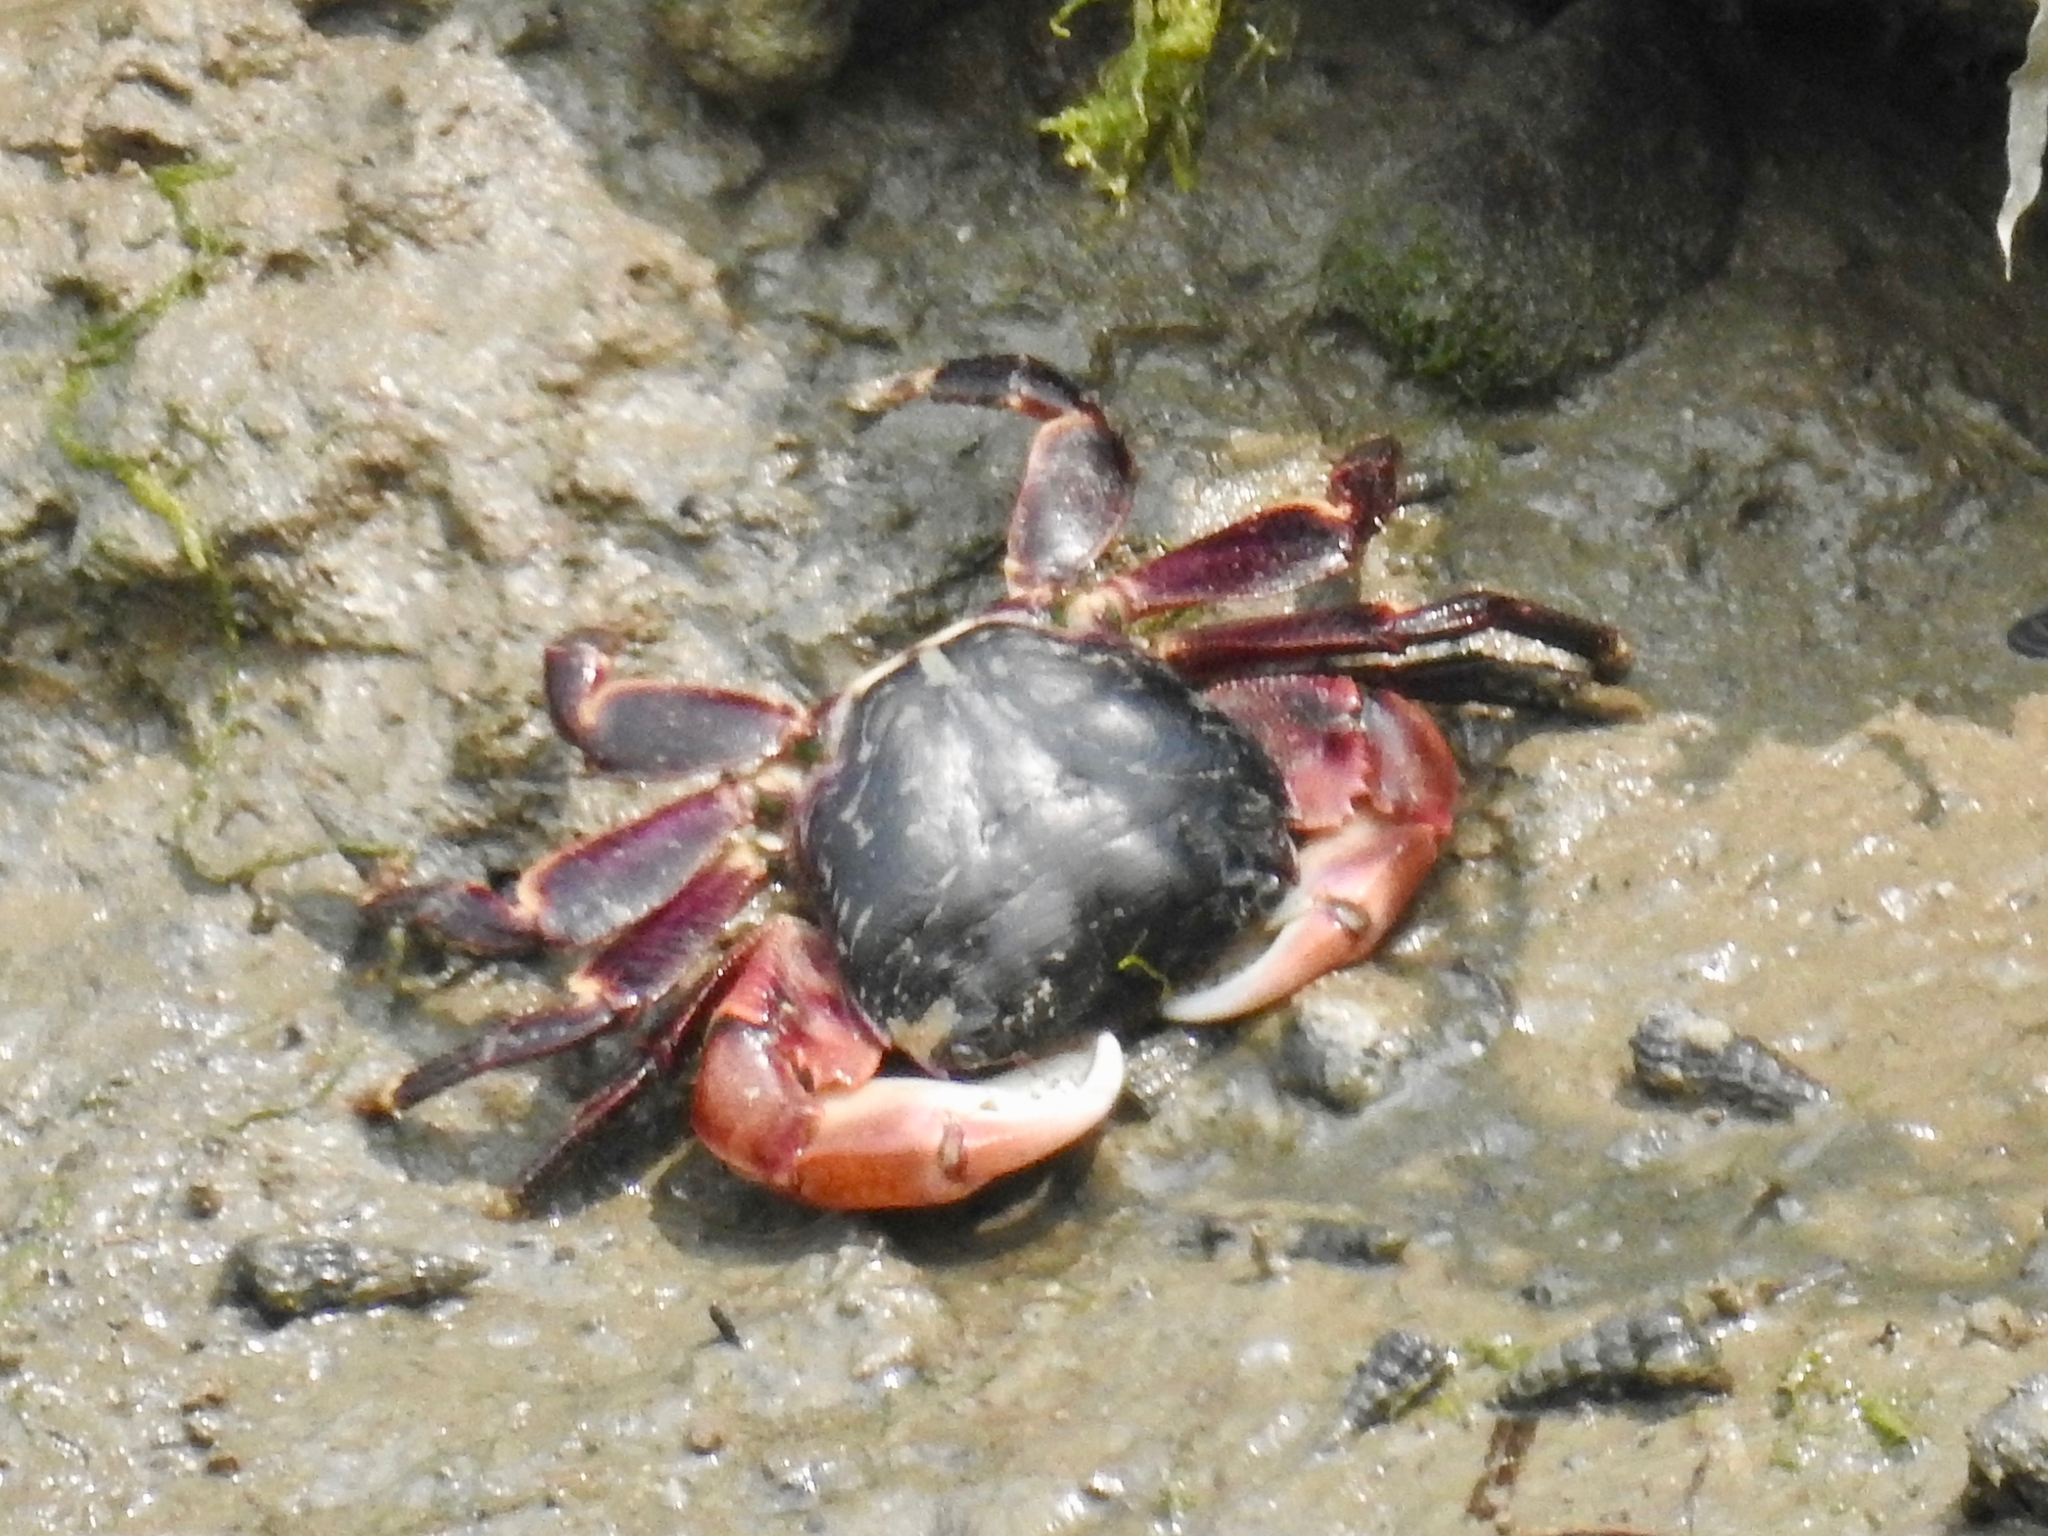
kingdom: Animalia
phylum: Arthropoda
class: Malacostraca
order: Decapoda
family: Grapsidae
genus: Pachygrapsus
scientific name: Pachygrapsus crassipes
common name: Striped shore crab
